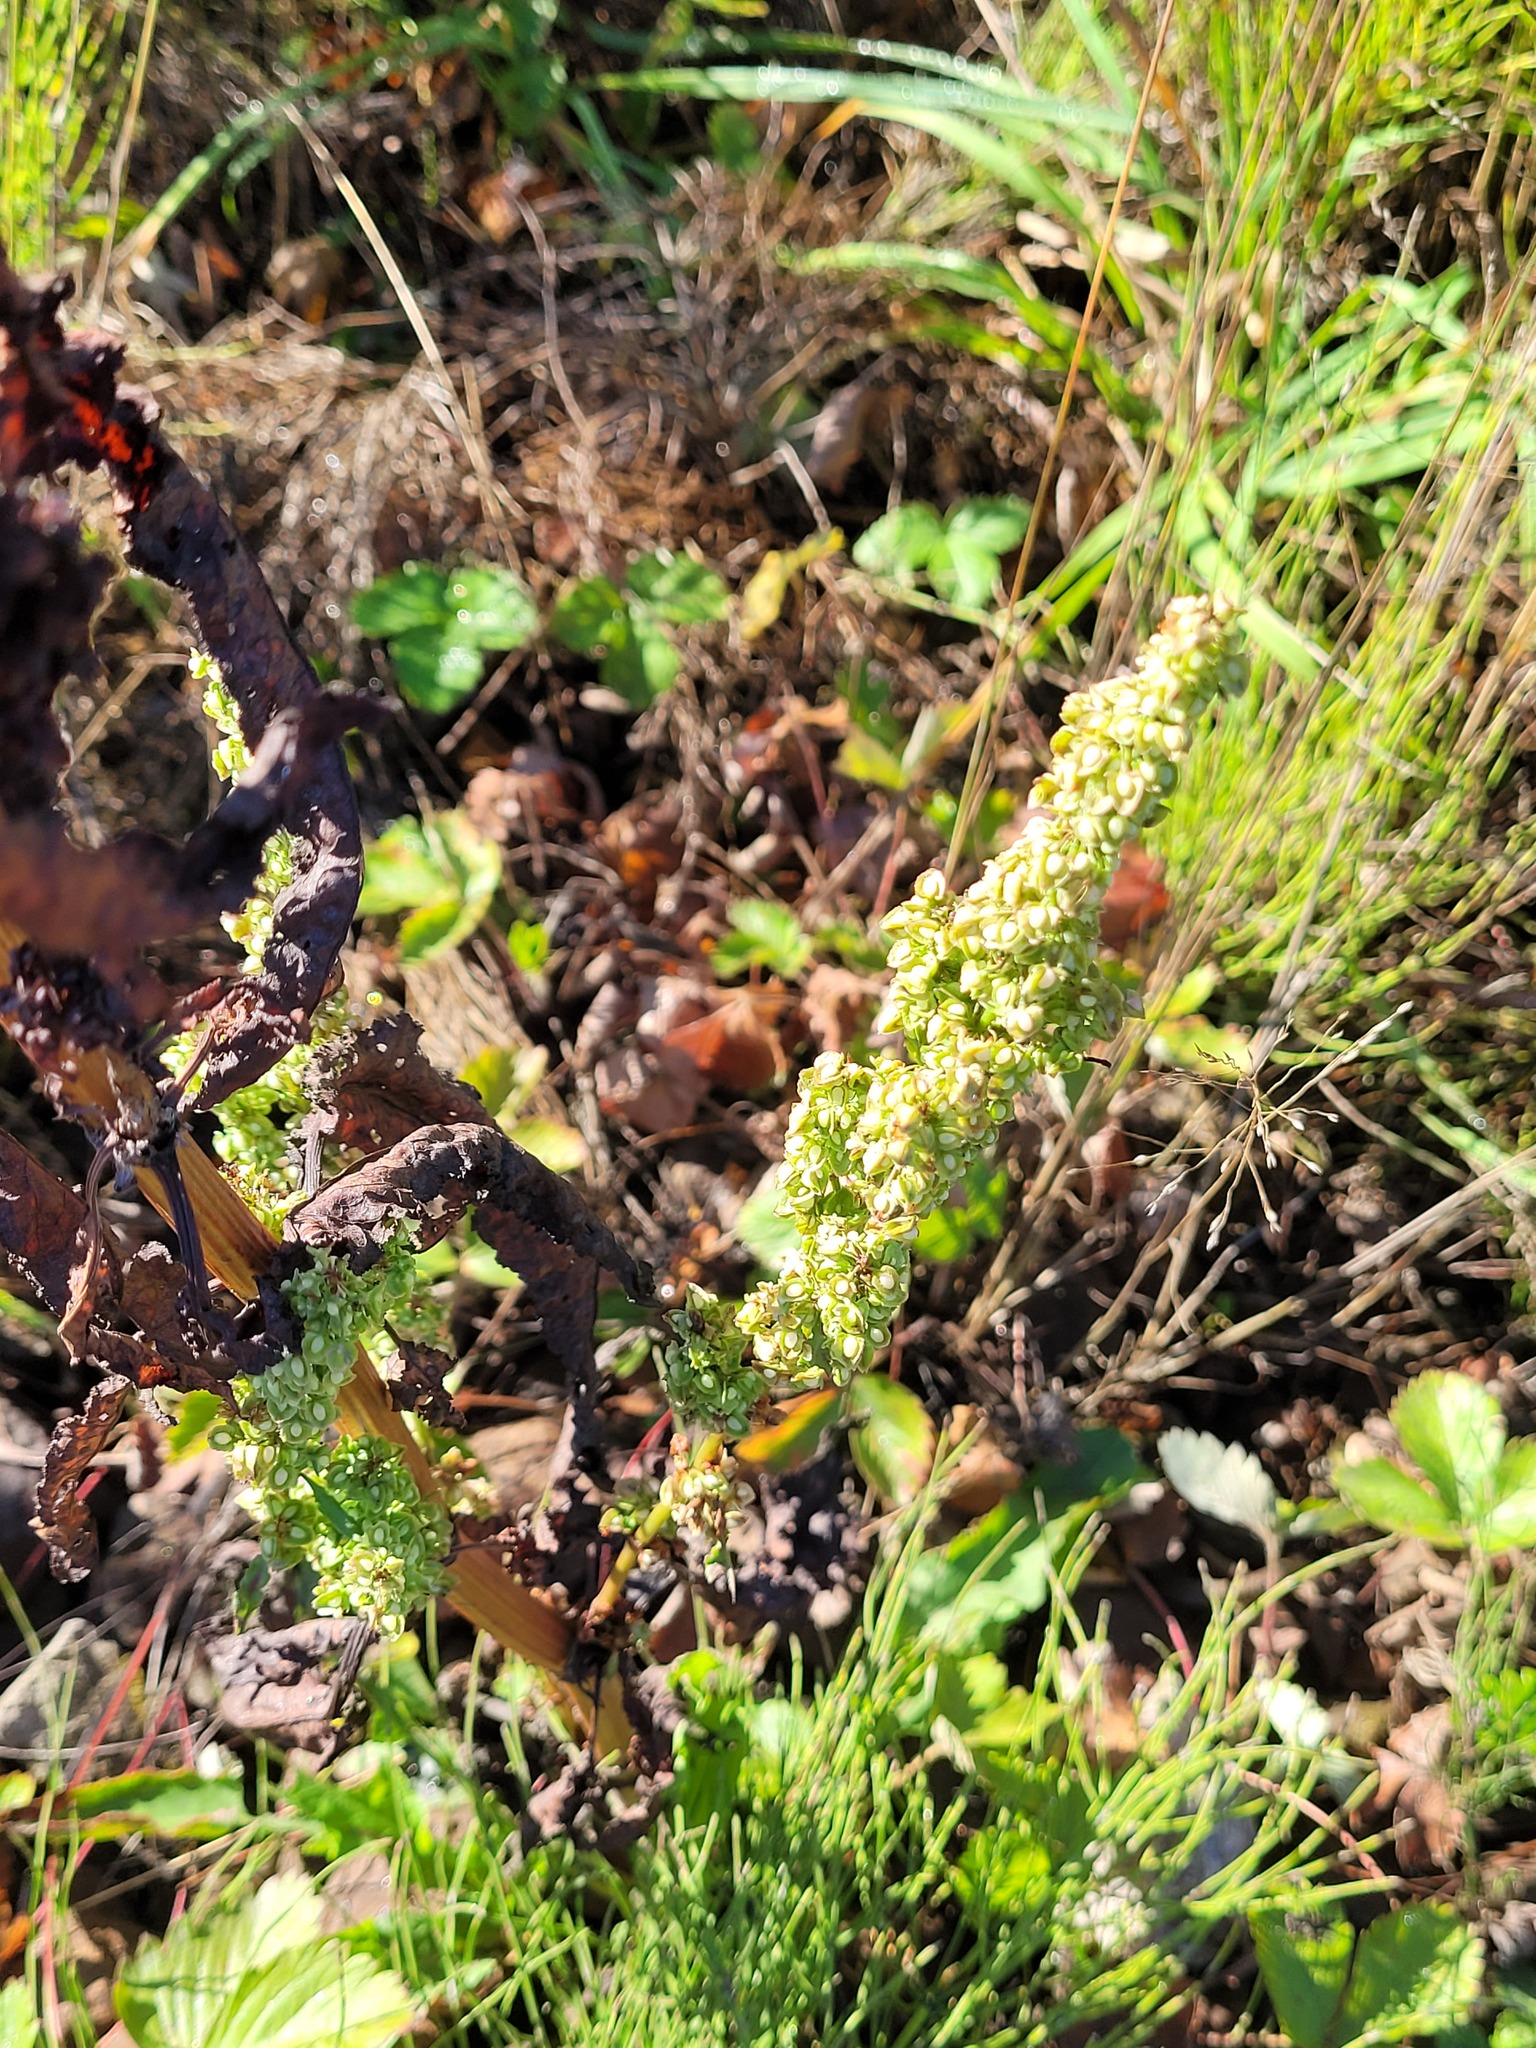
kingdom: Plantae
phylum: Tracheophyta
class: Magnoliopsida
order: Caryophyllales
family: Polygonaceae
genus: Rumex
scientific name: Rumex crispus
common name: Curled dock
